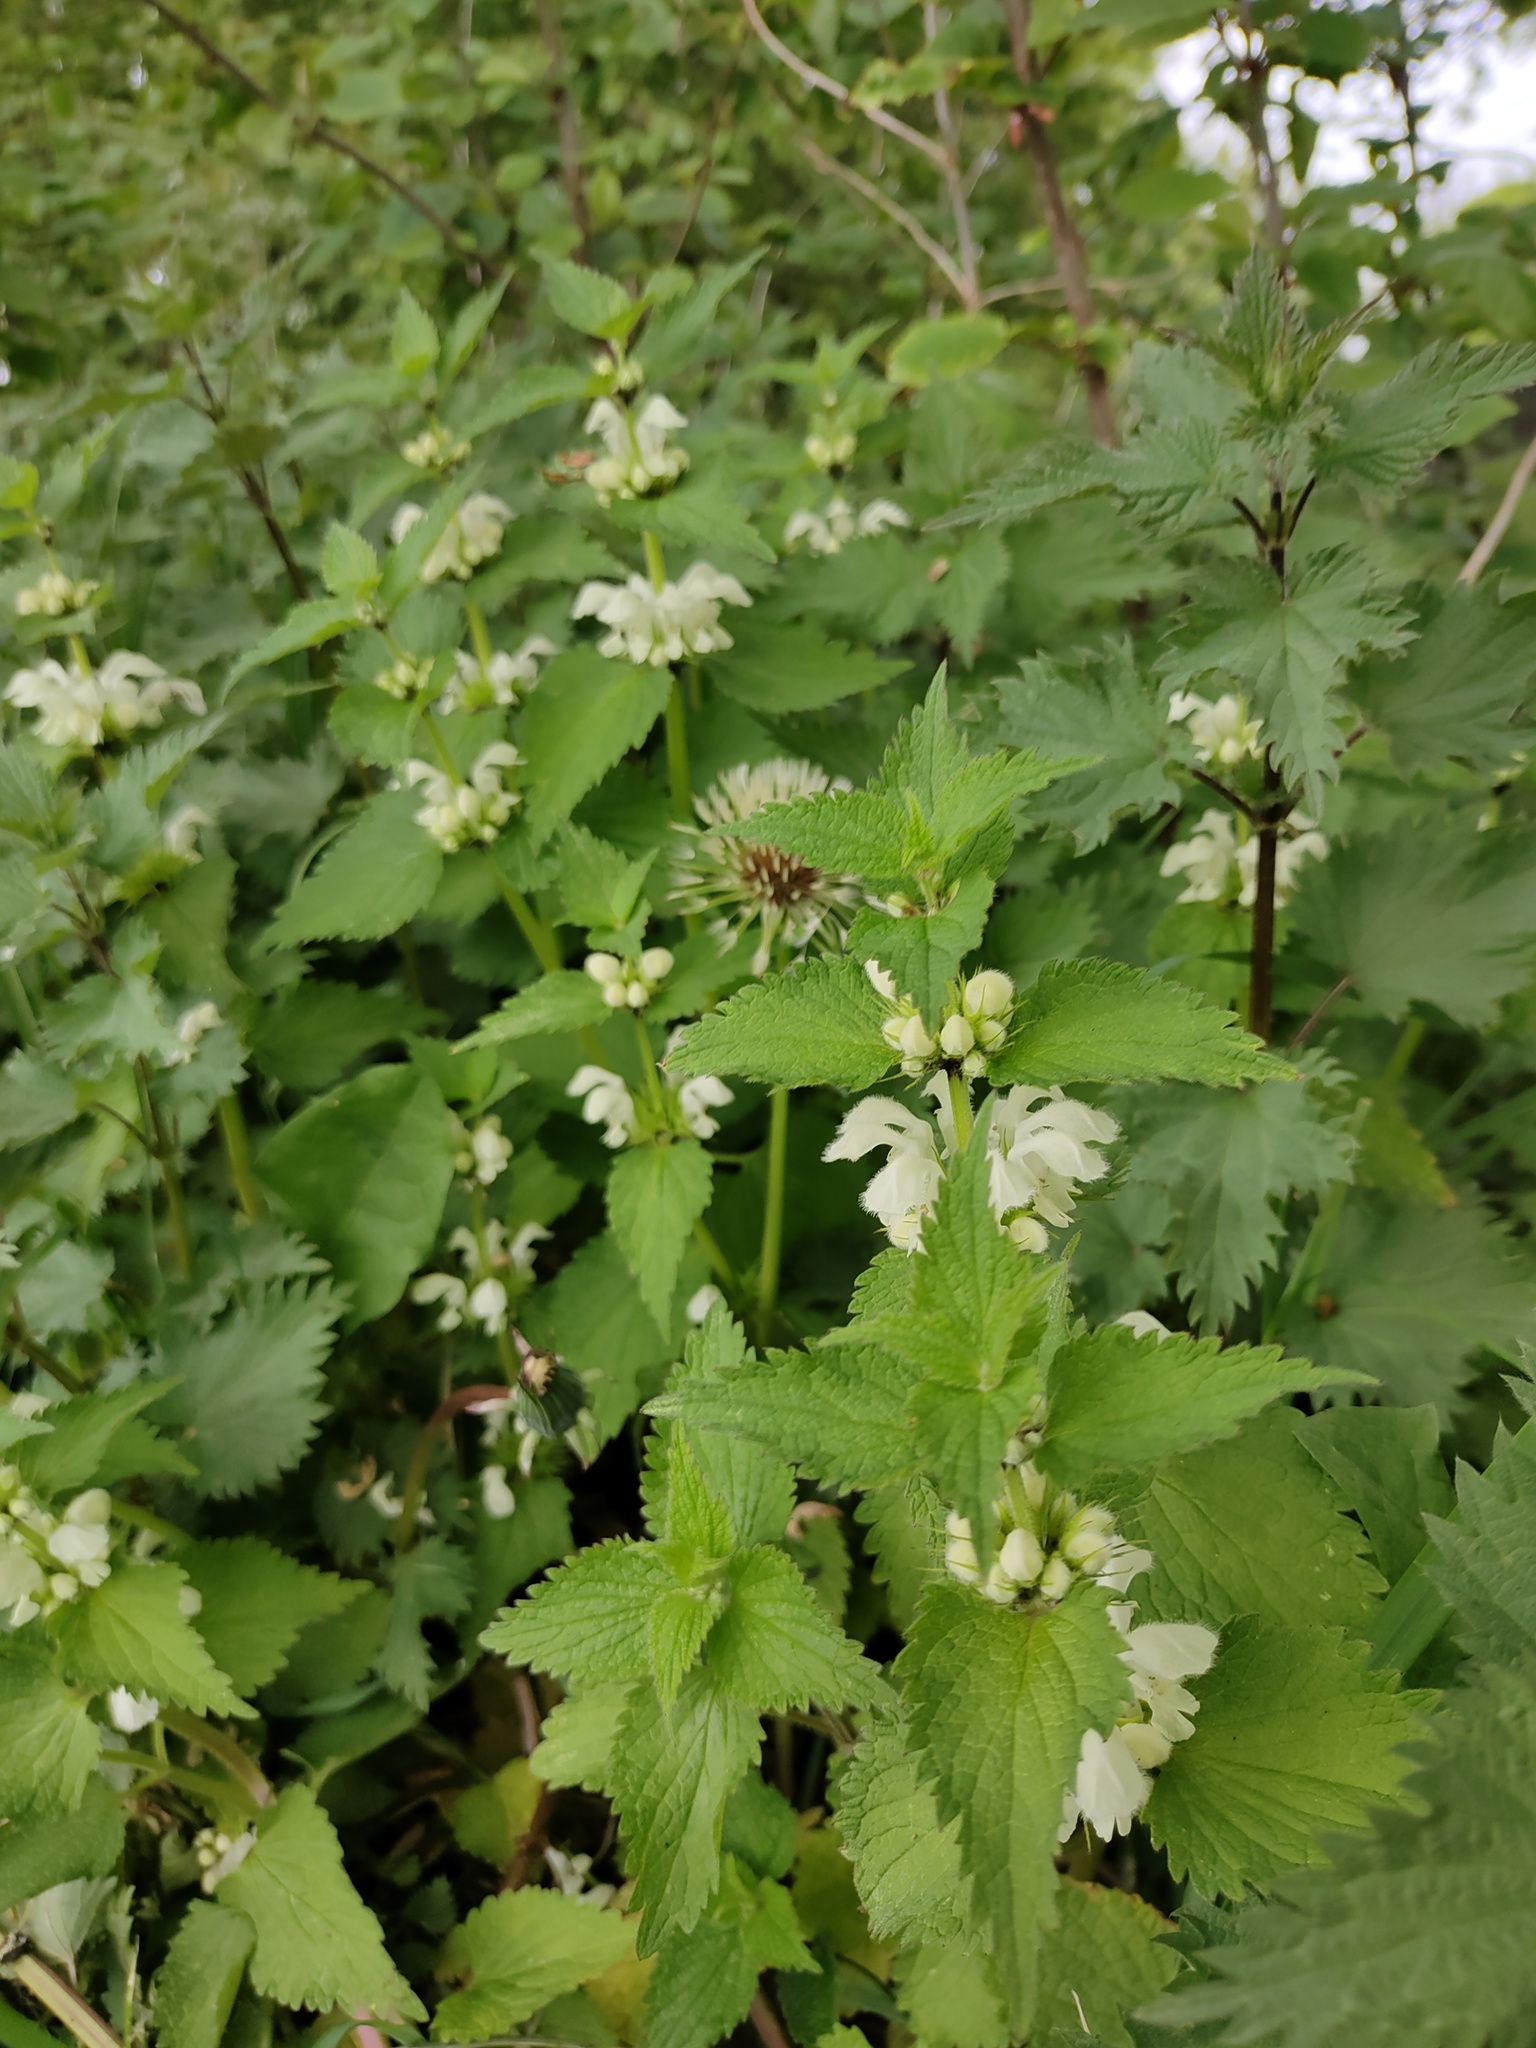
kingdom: Plantae
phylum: Tracheophyta
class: Magnoliopsida
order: Lamiales
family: Lamiaceae
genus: Lamium
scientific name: Lamium album
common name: White dead-nettle
